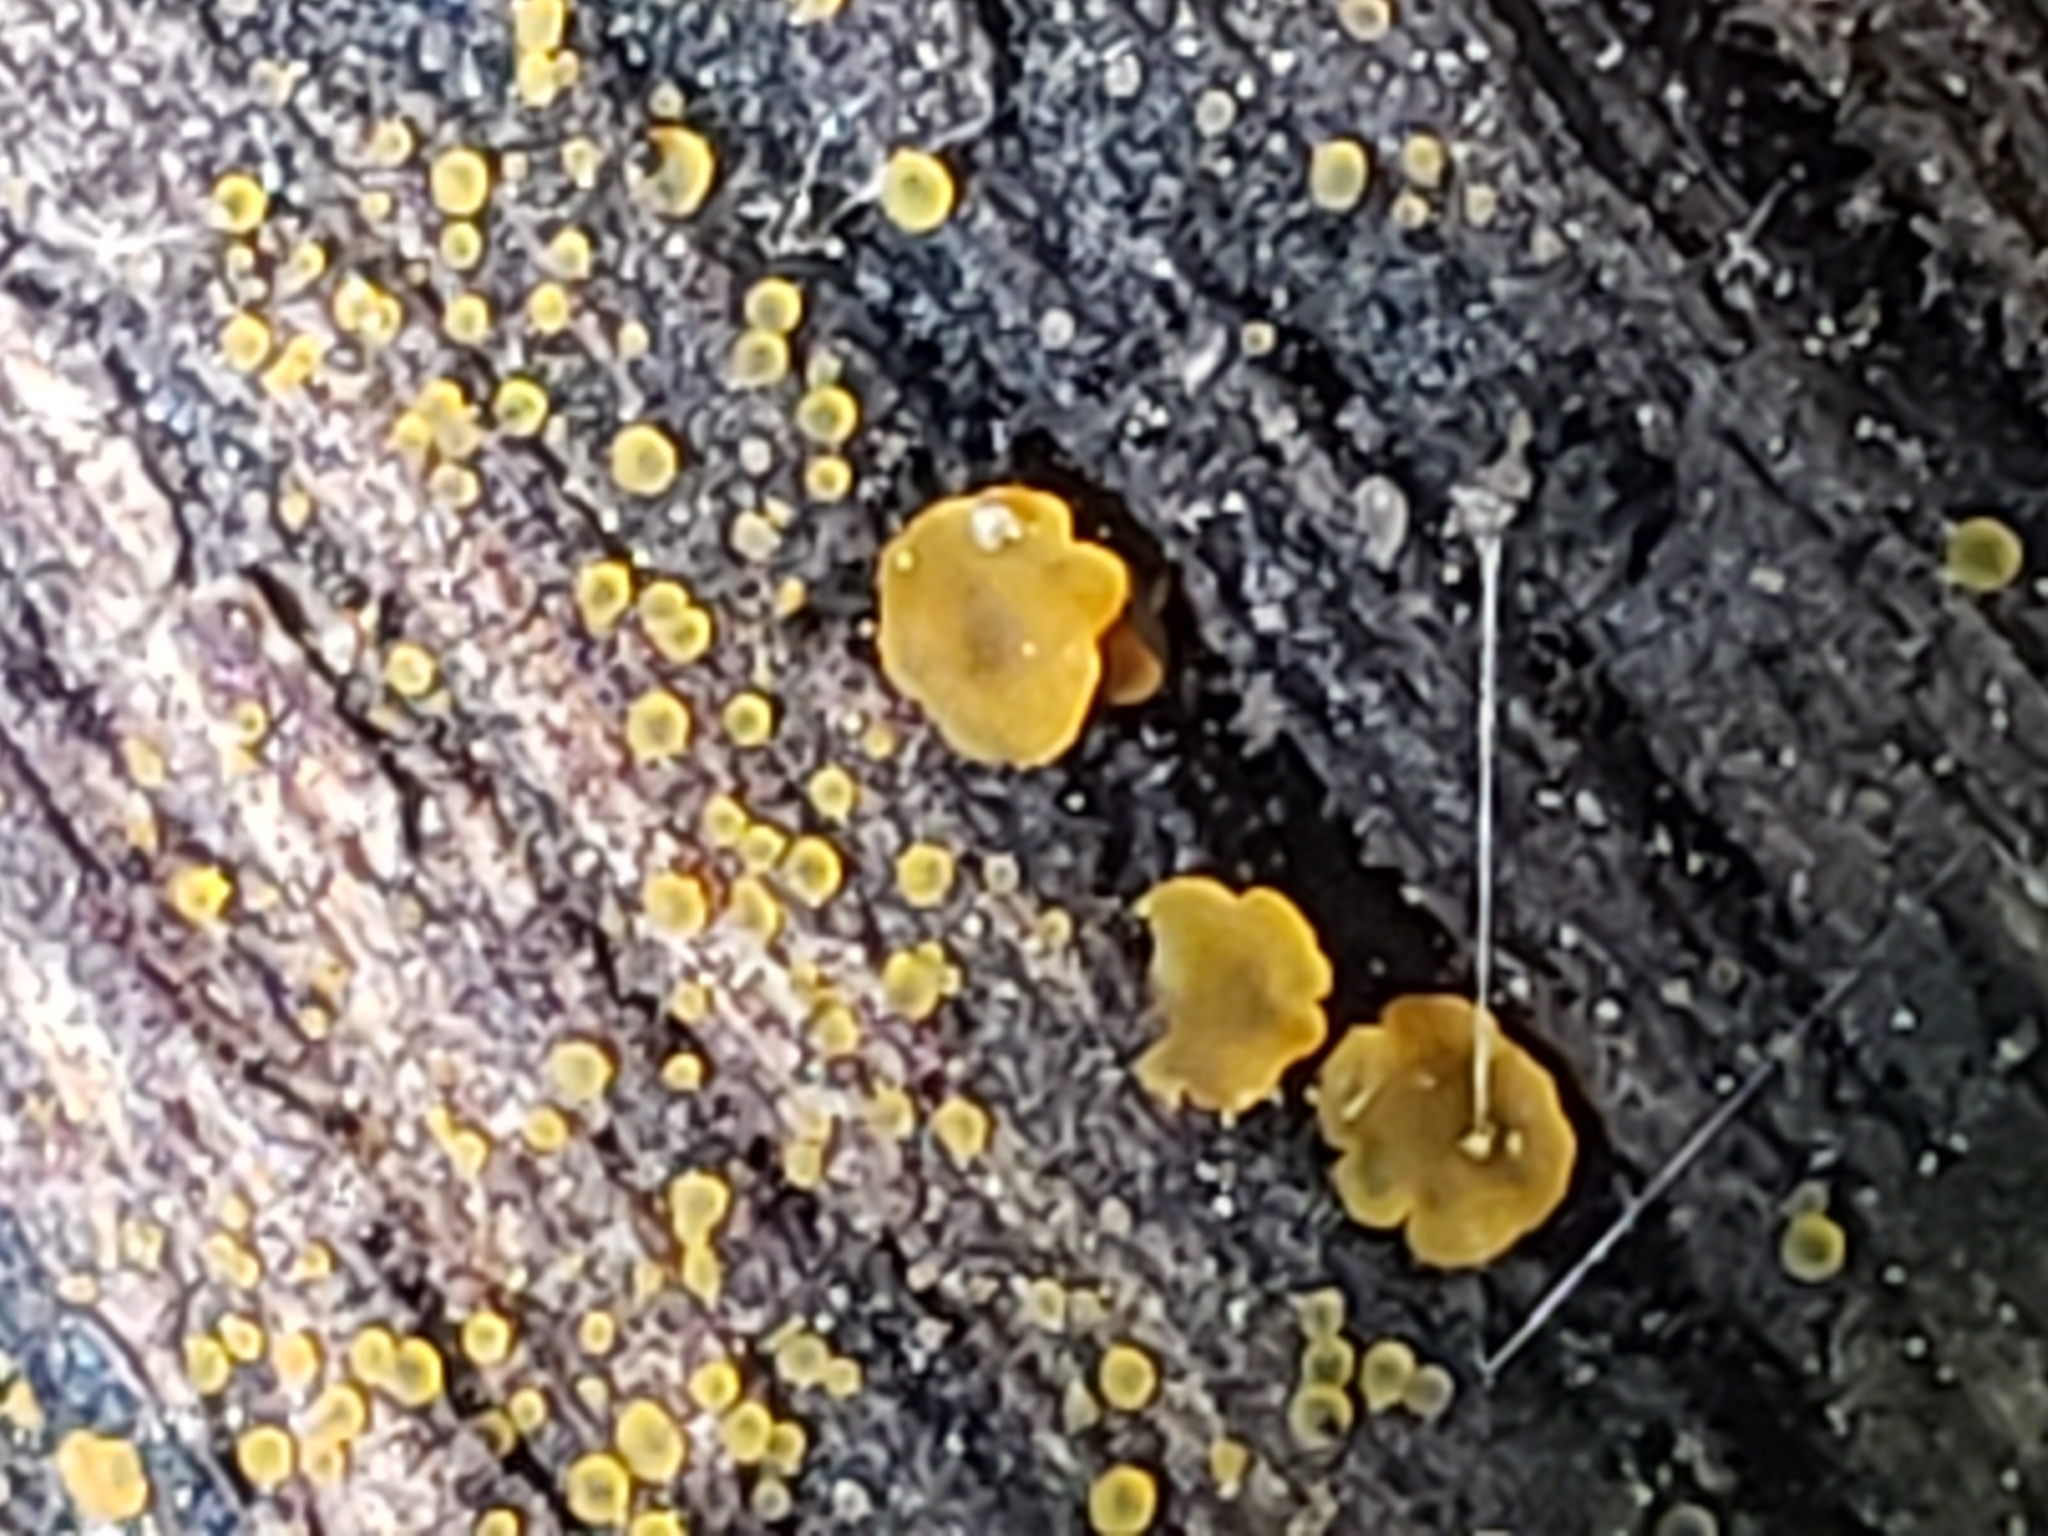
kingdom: Fungi
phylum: Ascomycota
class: Orbiliomycetes
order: Orbiliales
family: Orbiliaceae
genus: Orbilia
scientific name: Orbilia
